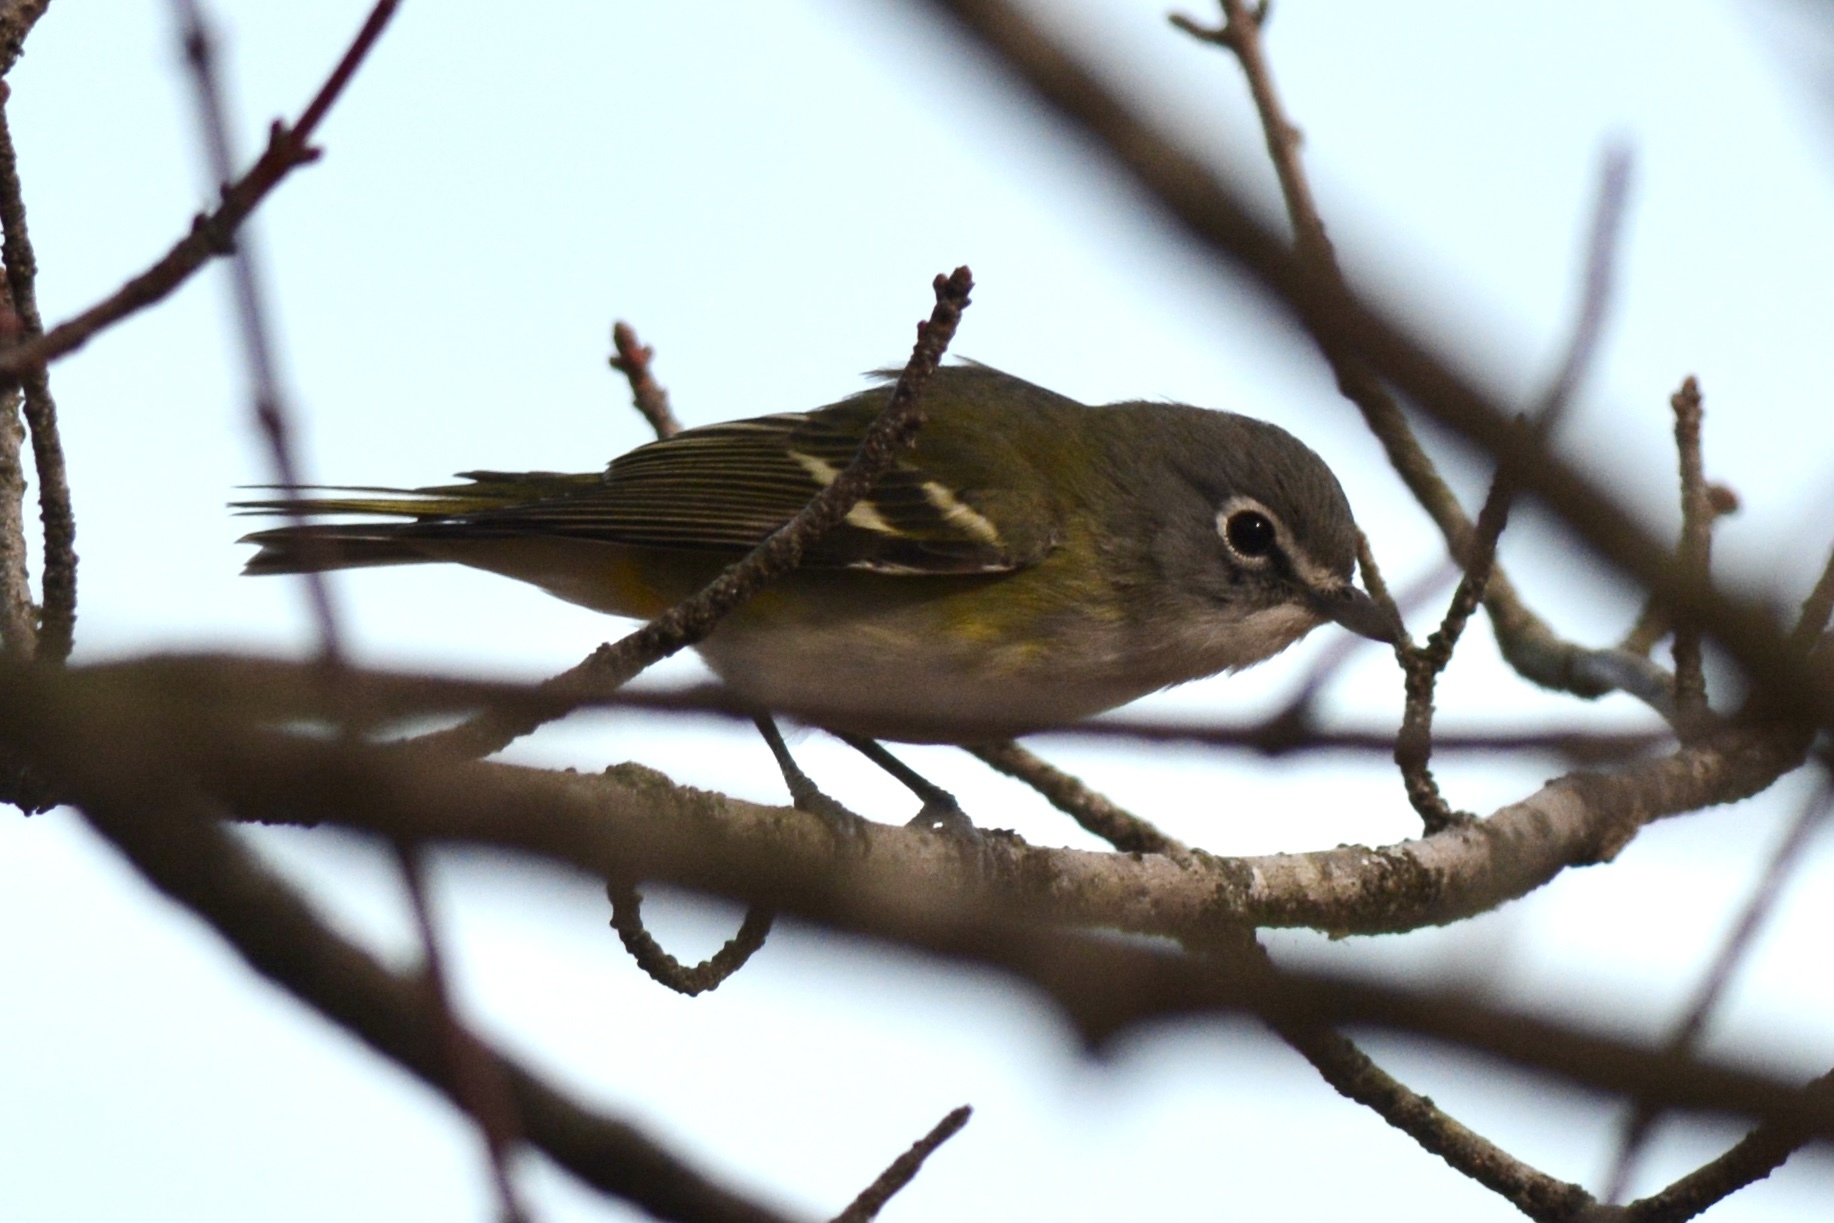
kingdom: Animalia
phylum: Chordata
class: Aves
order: Passeriformes
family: Vireonidae
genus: Vireo
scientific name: Vireo solitarius
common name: Blue-headed vireo
